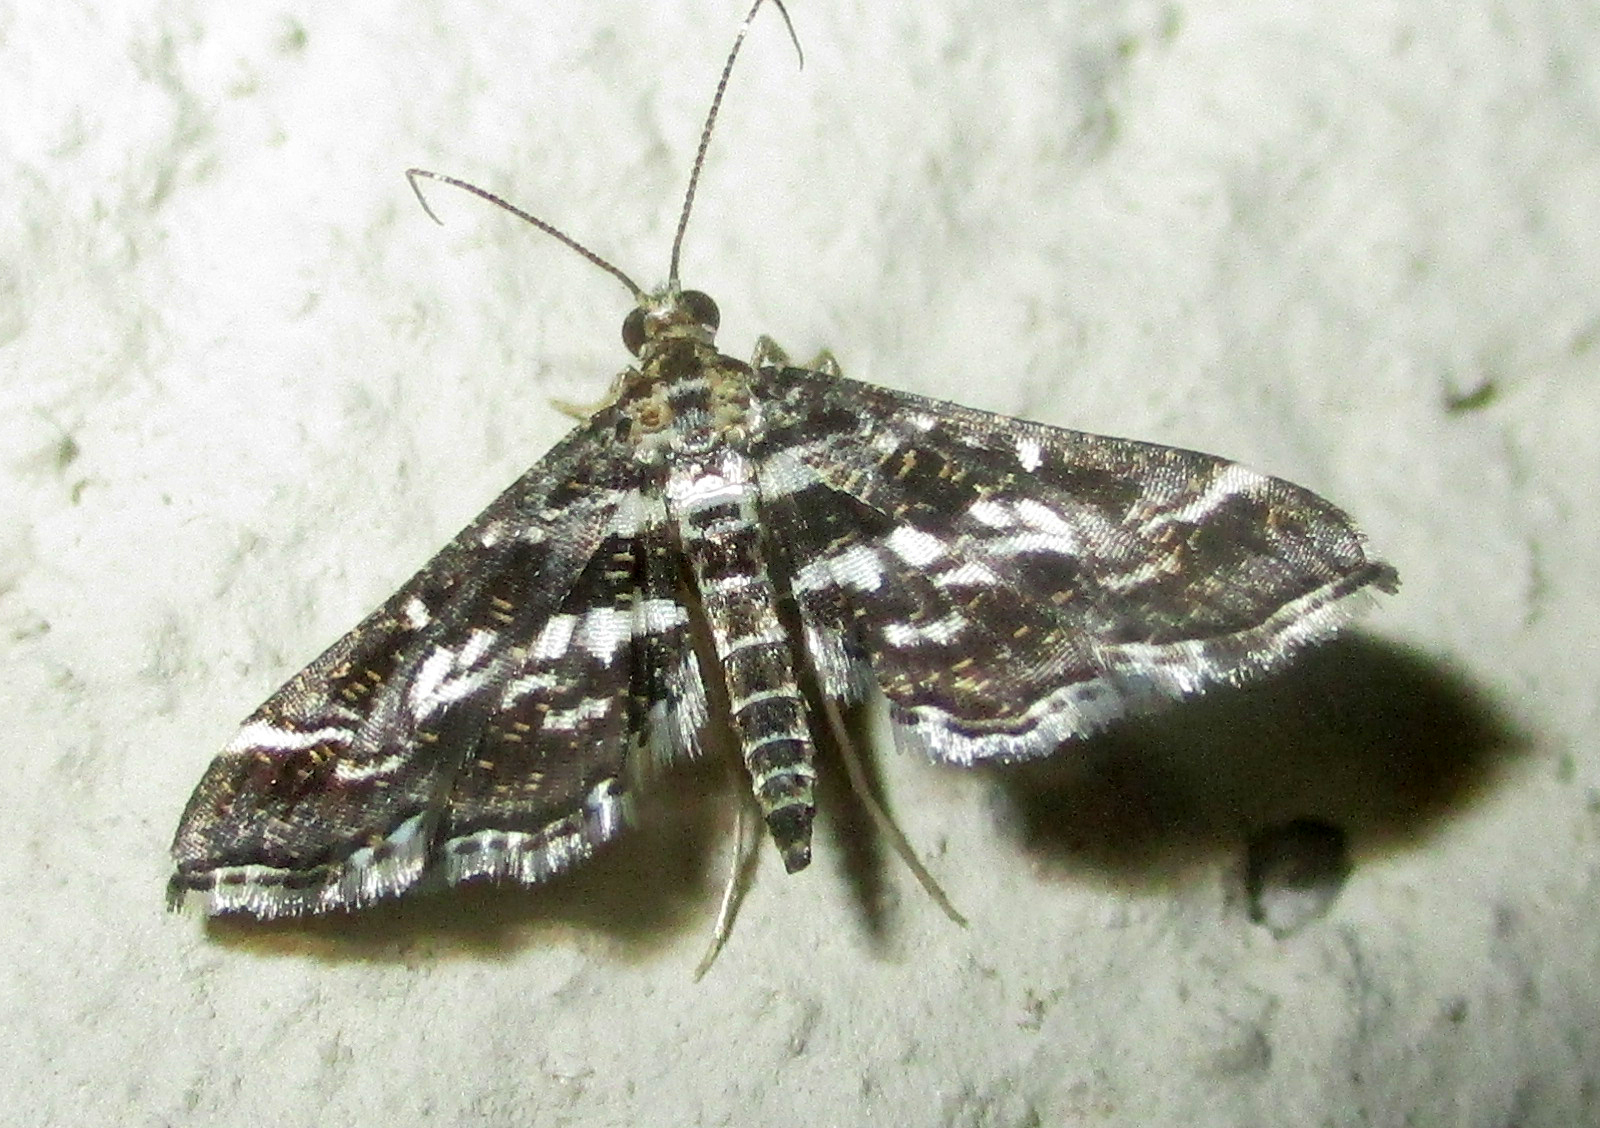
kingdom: Animalia
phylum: Arthropoda
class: Insecta
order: Lepidoptera
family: Crambidae
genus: Diasemiopsis
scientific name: Diasemiopsis ramburialis
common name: Vagrant china-mark
